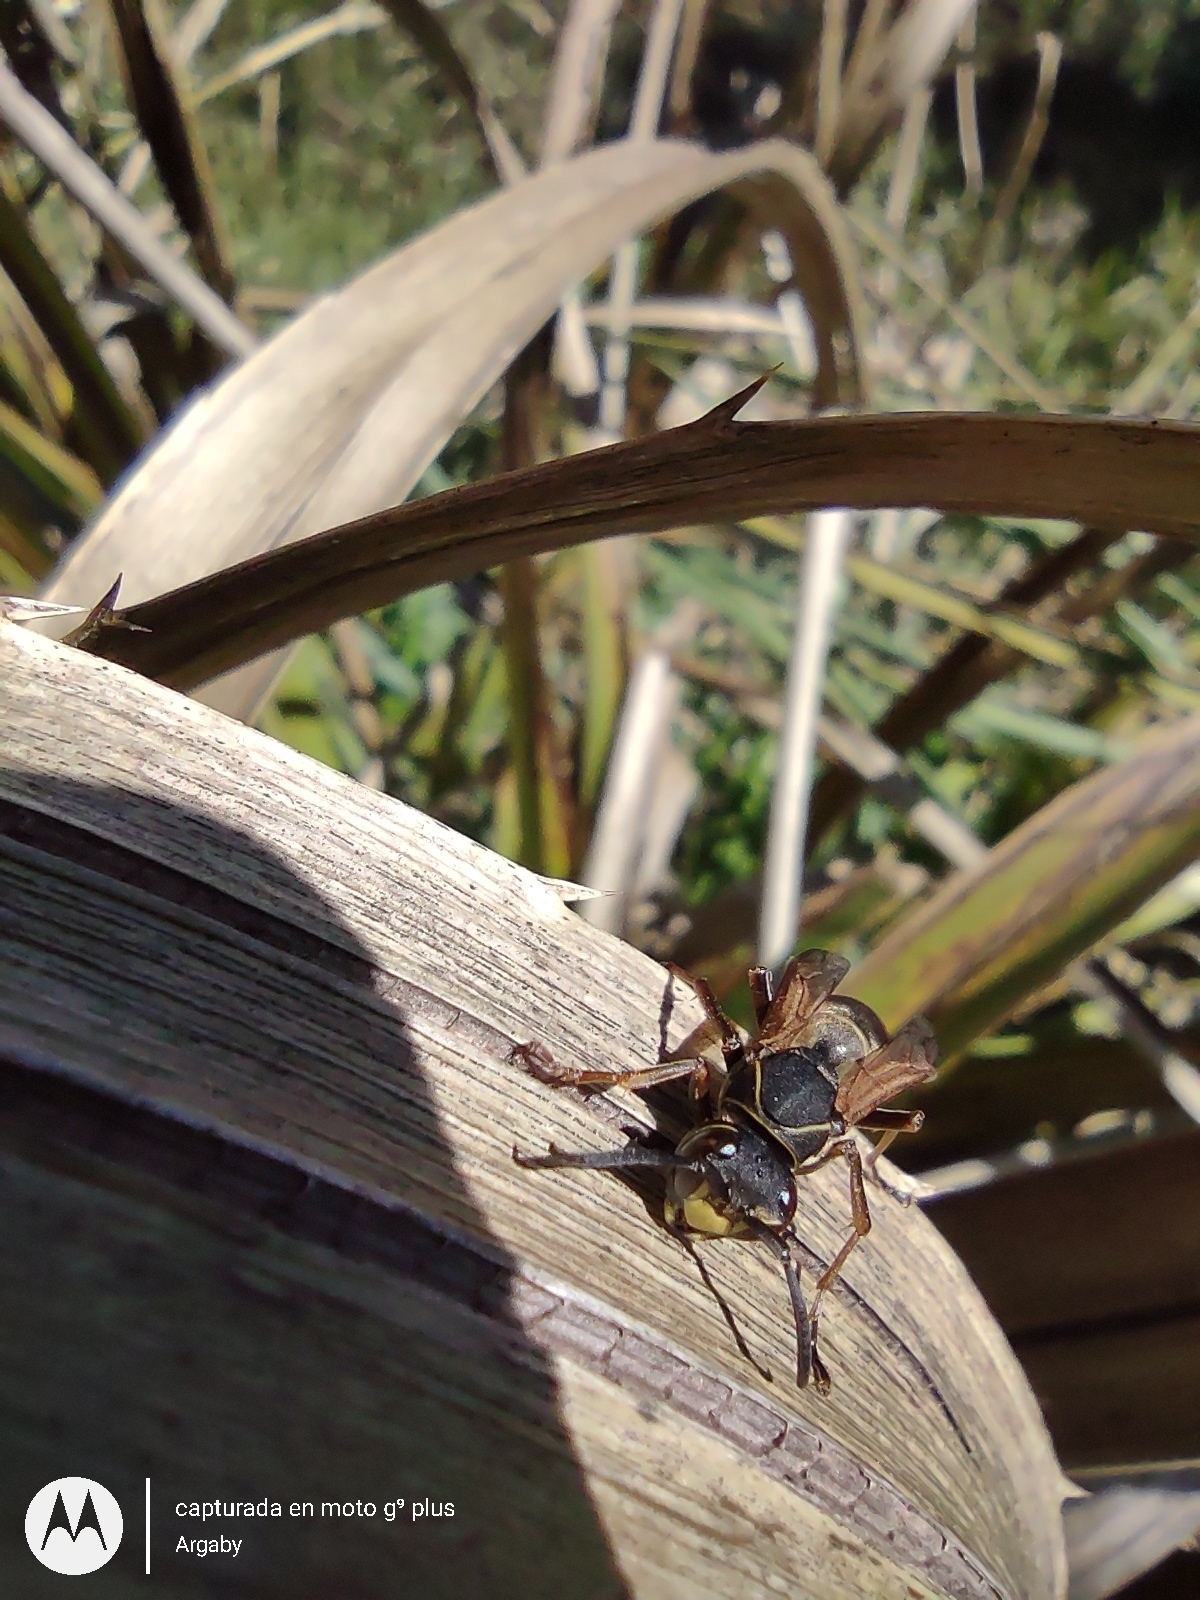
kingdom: Animalia
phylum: Arthropoda
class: Insecta
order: Hymenoptera
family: Eumenidae
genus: Polistes
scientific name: Polistes cinerascens
